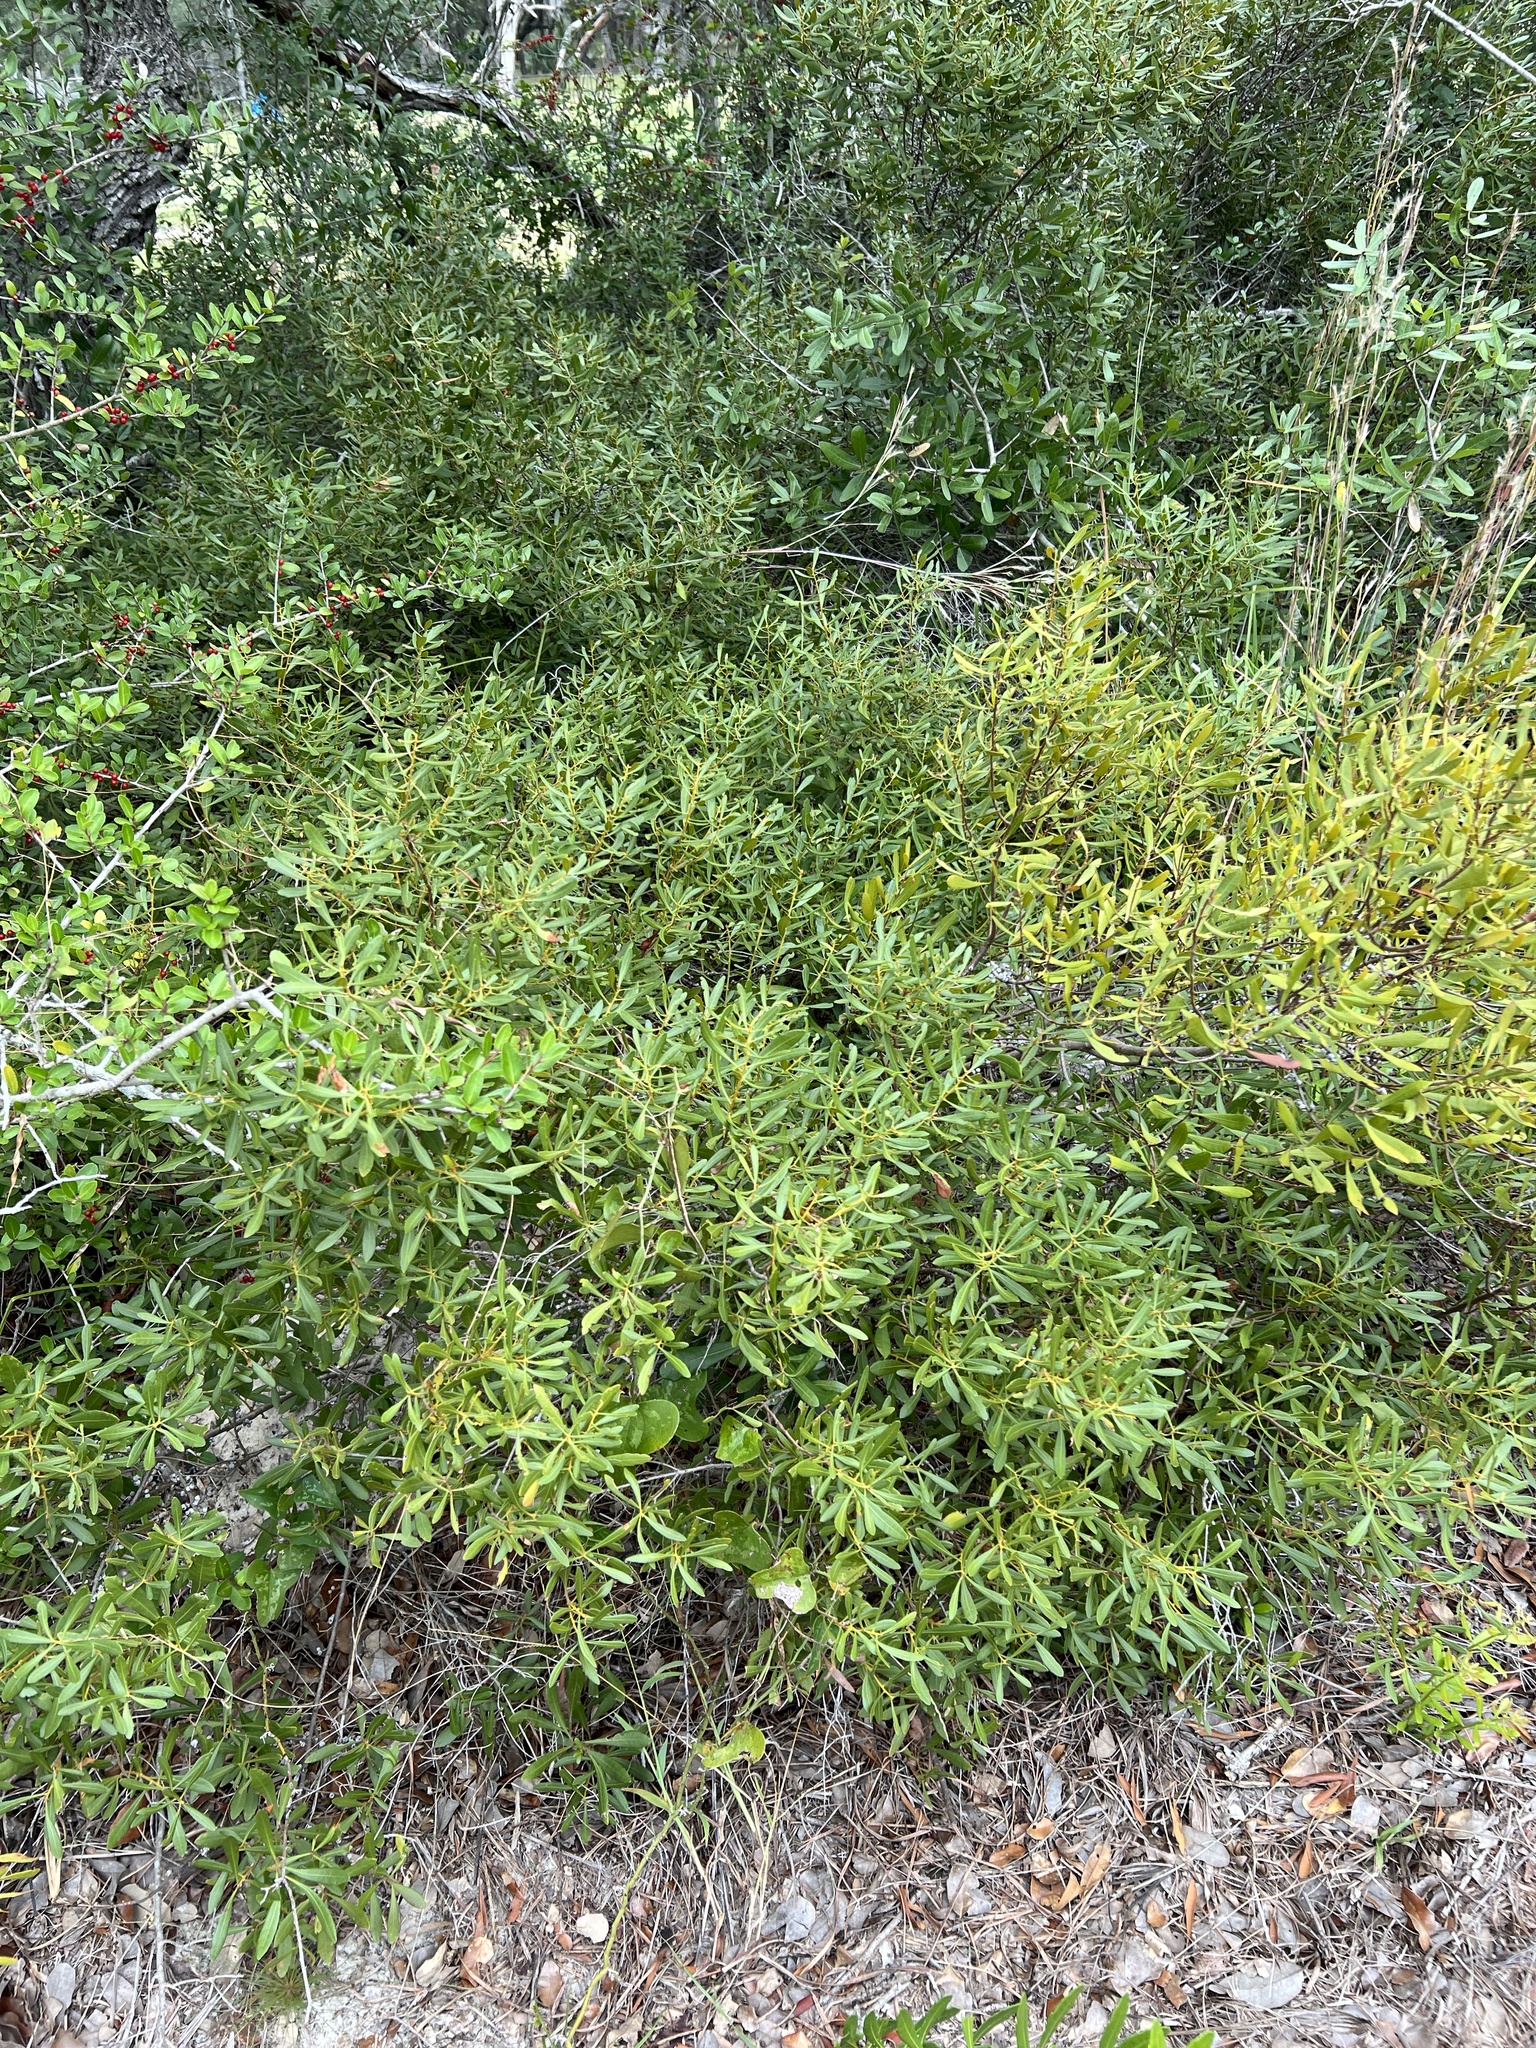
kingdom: Plantae
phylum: Tracheophyta
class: Magnoliopsida
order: Fagales
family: Myricaceae
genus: Morella
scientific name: Morella cerifera
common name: Wax myrtle
